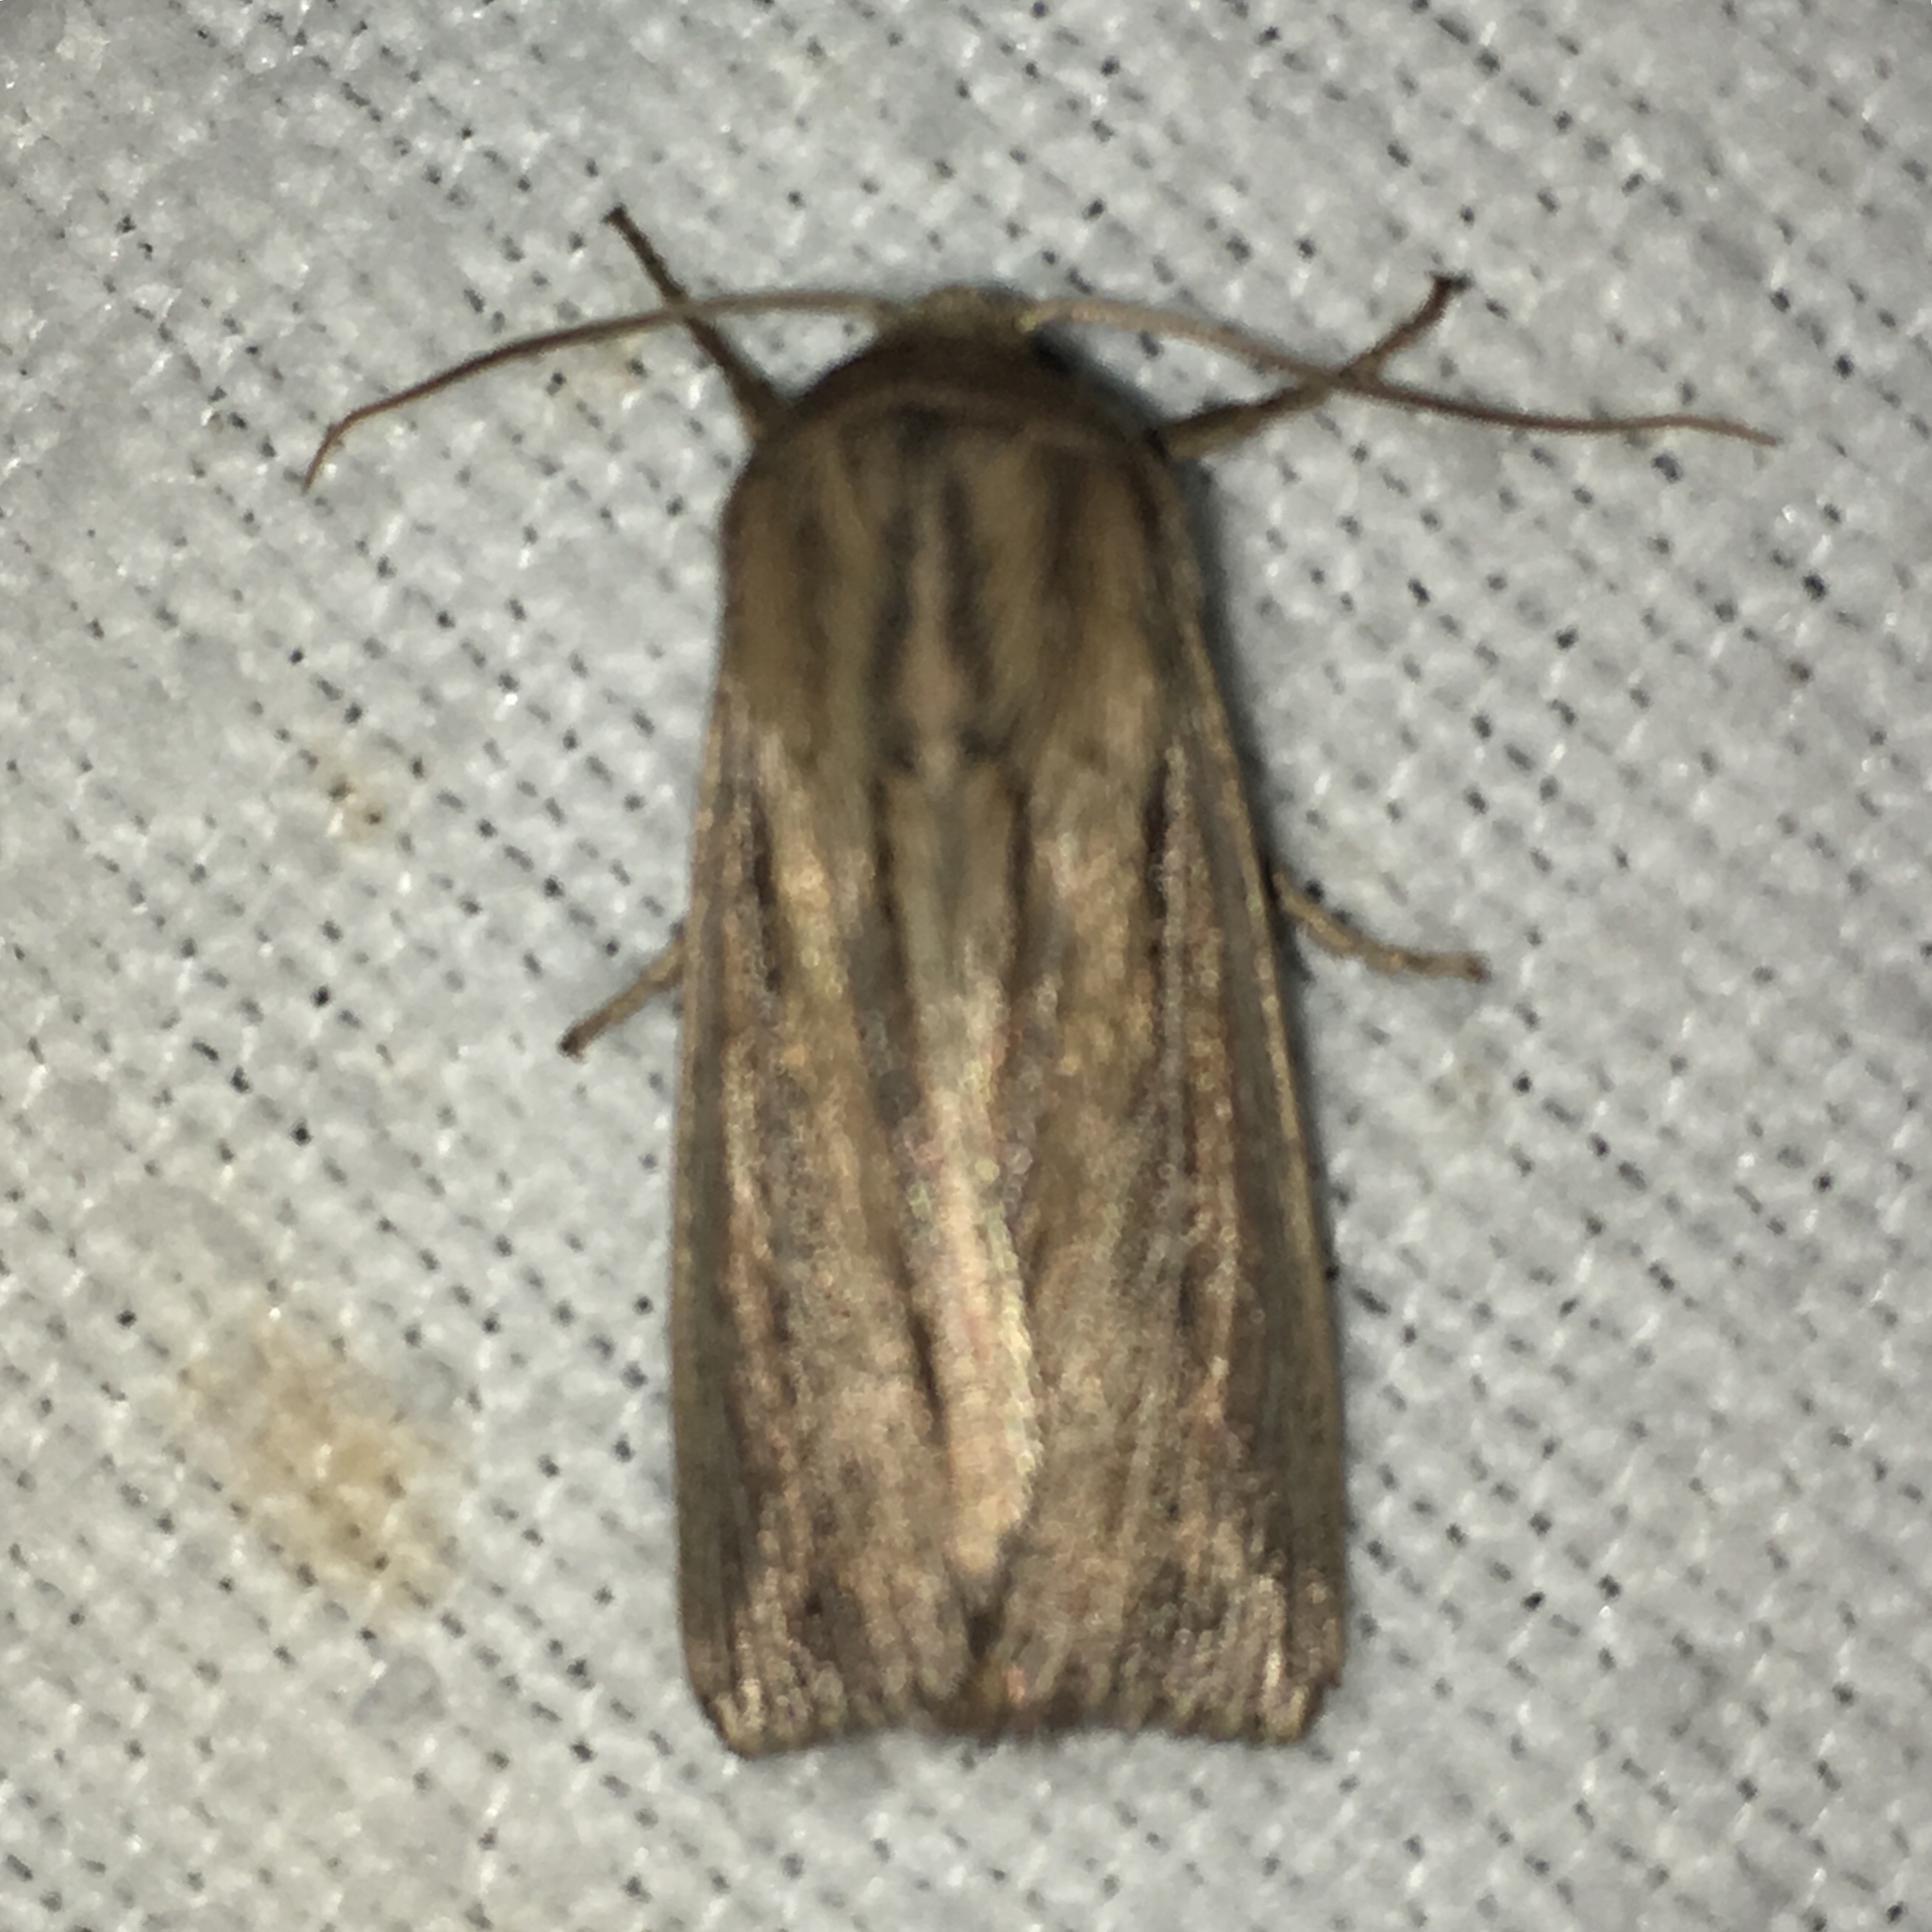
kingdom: Animalia
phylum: Arthropoda
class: Insecta
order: Lepidoptera
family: Noctuidae
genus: Leucania
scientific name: Leucania commoides
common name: Two-lined wainscot
